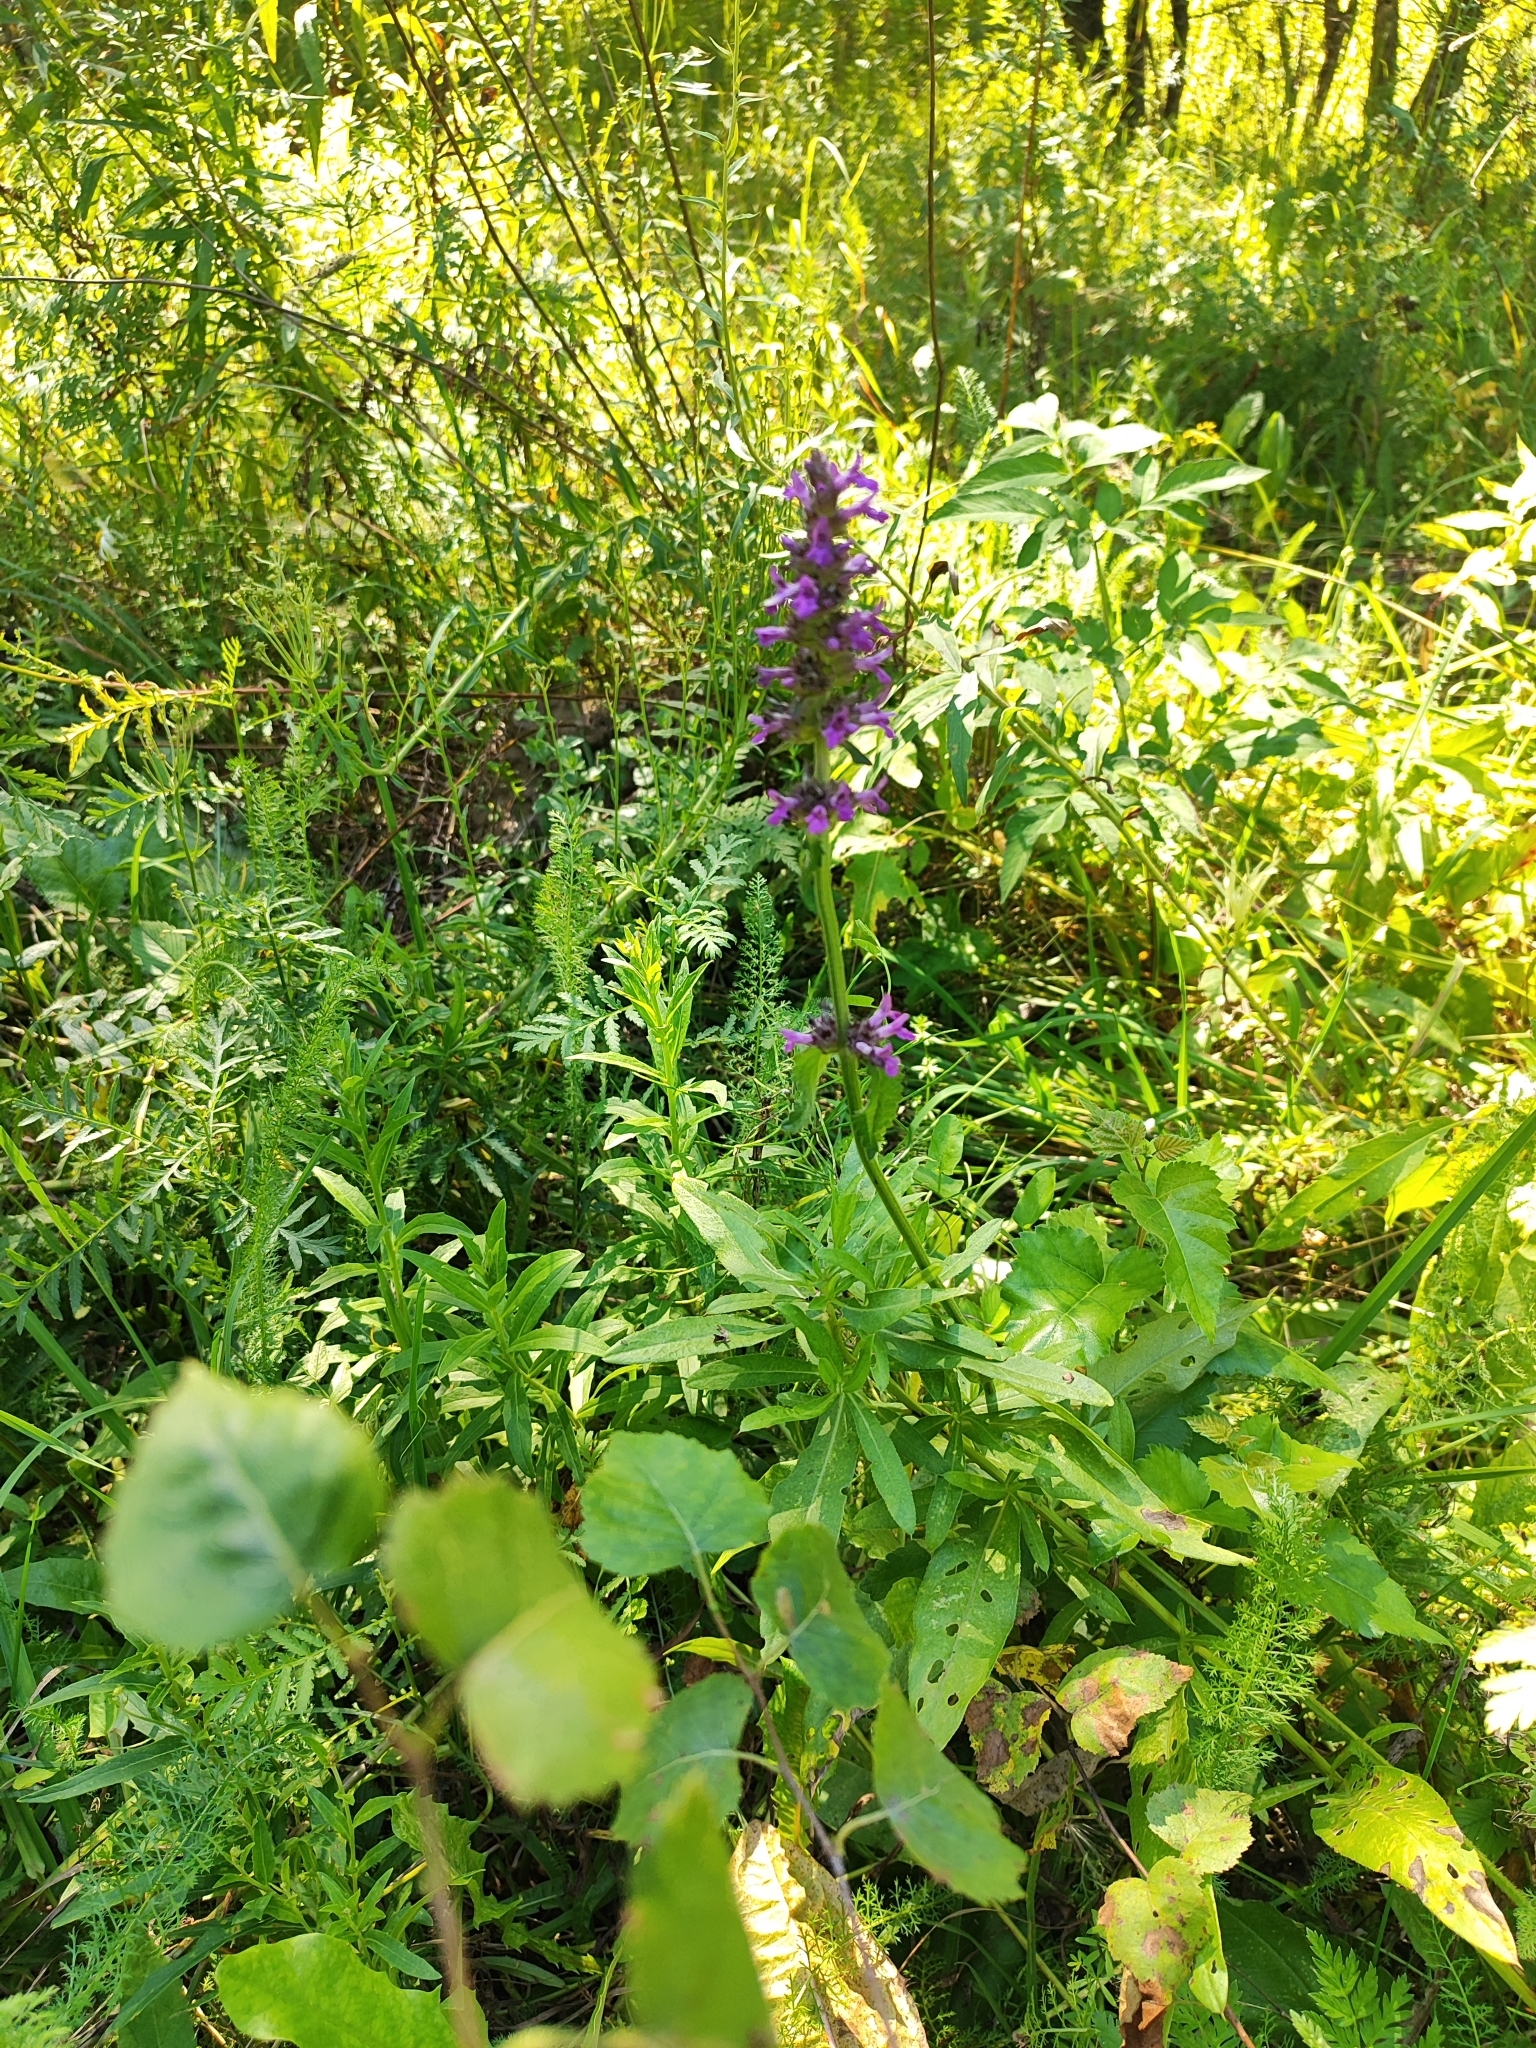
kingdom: Plantae
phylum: Tracheophyta
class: Magnoliopsida
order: Lamiales
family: Lamiaceae
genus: Betonica
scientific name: Betonica officinalis
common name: Bishop's-wort
